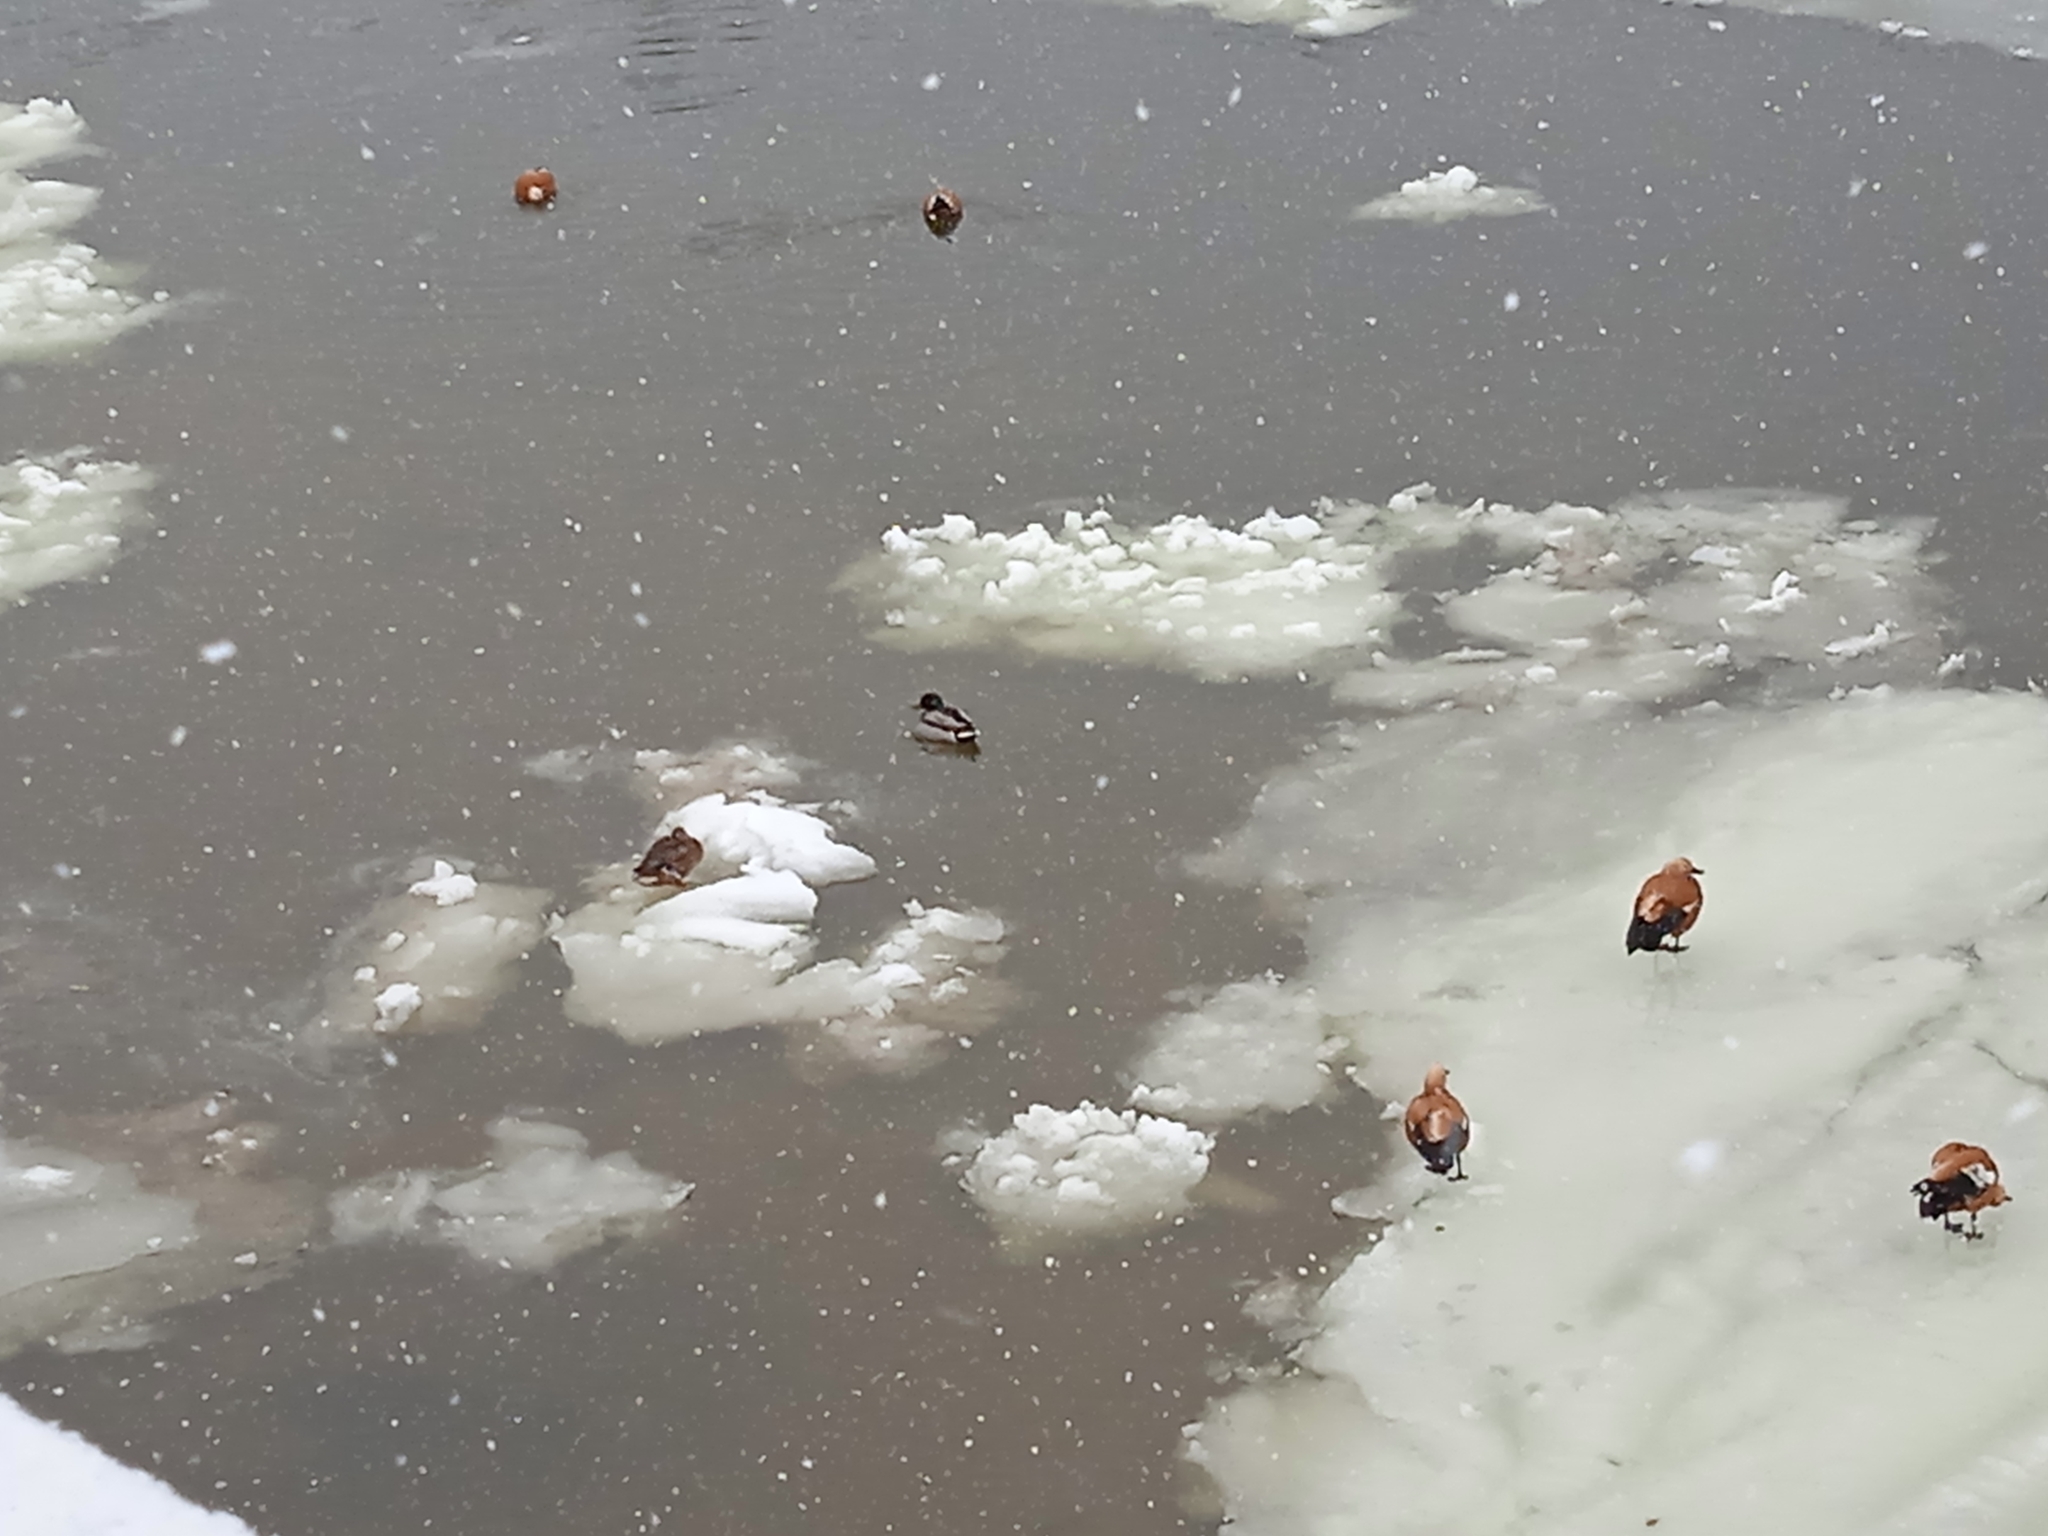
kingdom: Animalia
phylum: Chordata
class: Aves
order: Anseriformes
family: Anatidae
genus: Anas
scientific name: Anas platyrhynchos
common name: Mallard
